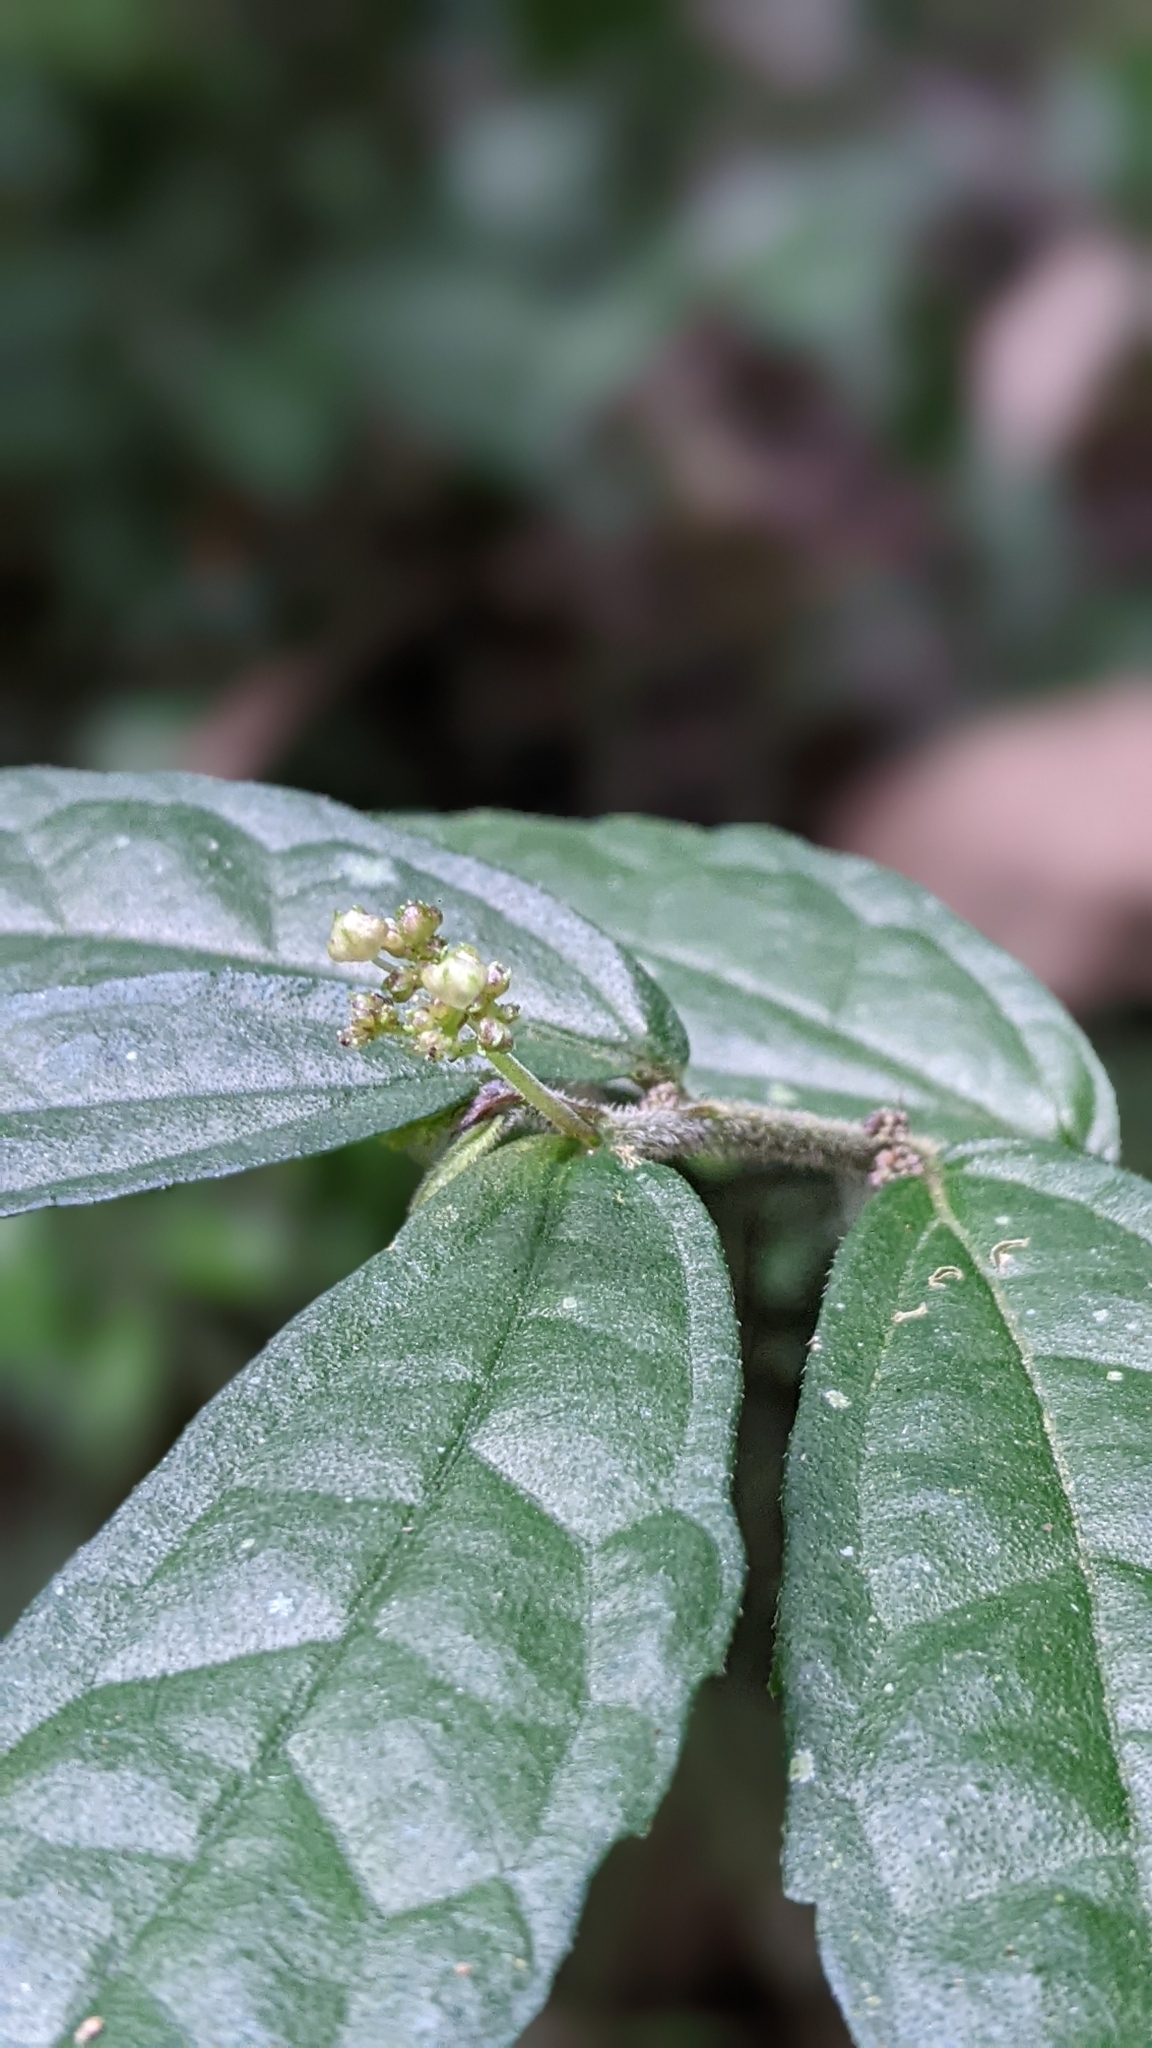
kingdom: Plantae
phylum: Tracheophyta
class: Magnoliopsida
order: Rosales
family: Urticaceae
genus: Elatostema
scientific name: Elatostema scabrum
